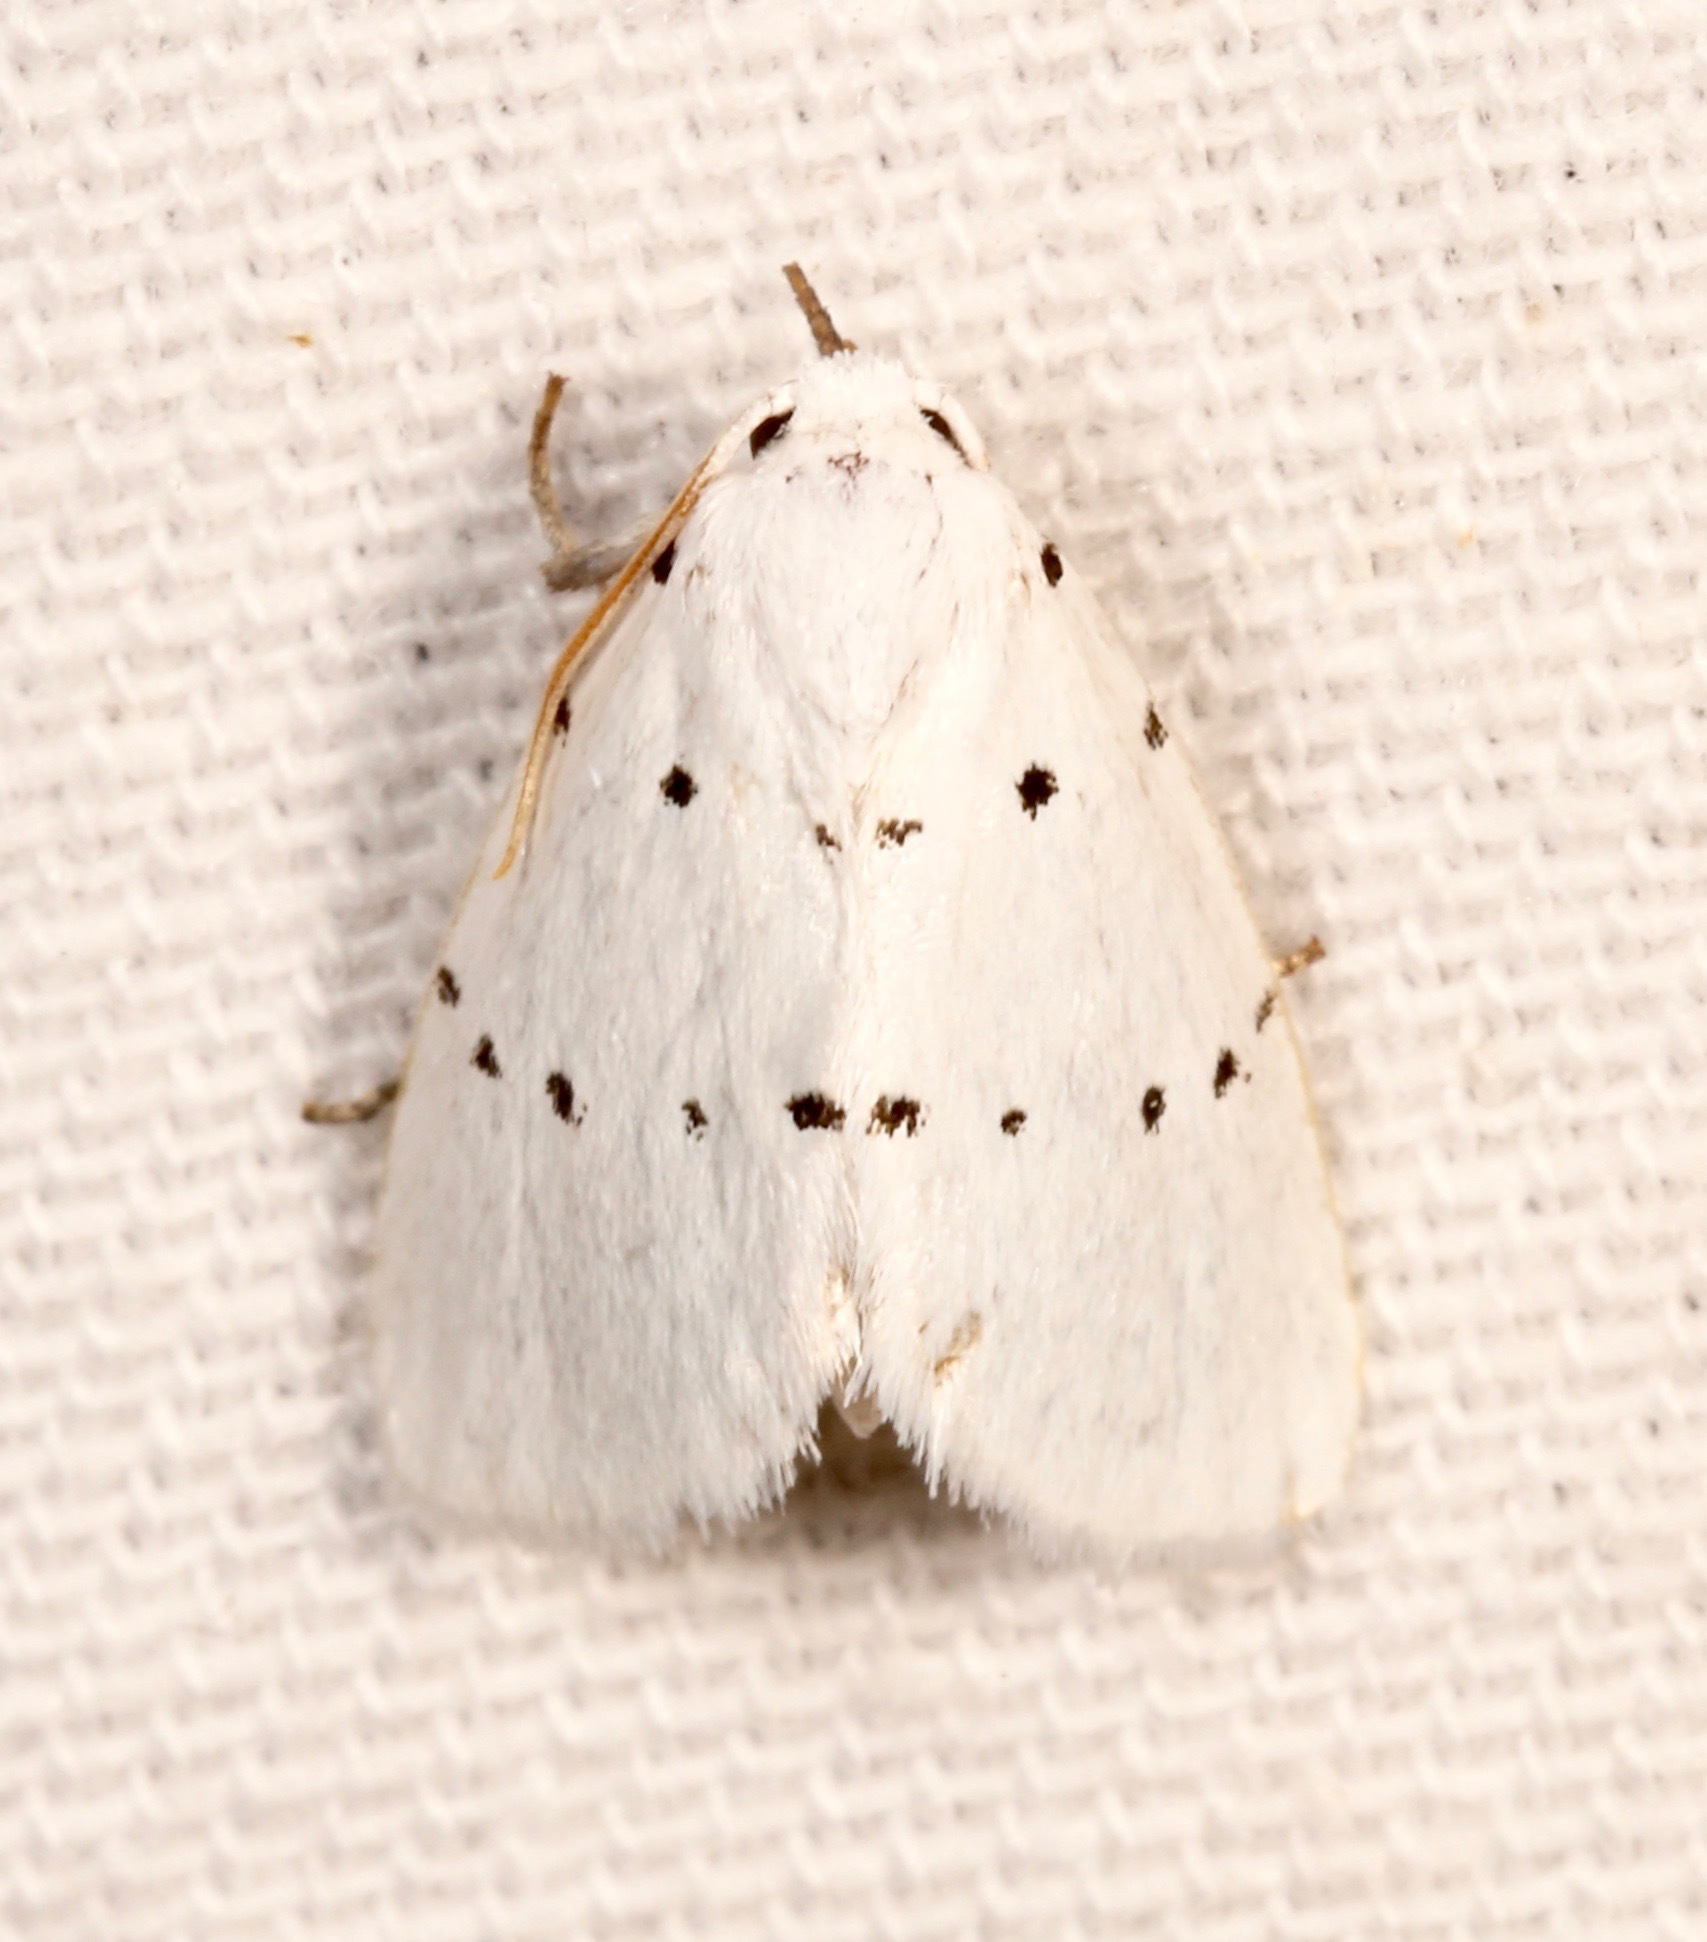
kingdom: Animalia
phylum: Arthropoda
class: Insecta
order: Lepidoptera
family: Noctuidae
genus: Homolagoa
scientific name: Homolagoa grotelliformis
